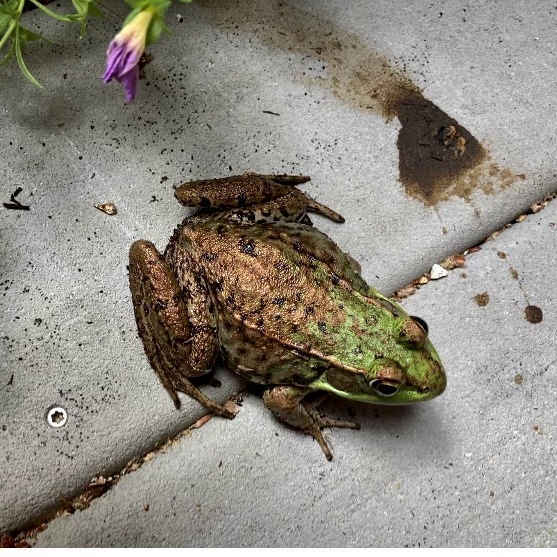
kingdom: Animalia
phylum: Chordata
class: Amphibia
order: Anura
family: Ranidae
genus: Lithobates
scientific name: Lithobates clamitans
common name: Green frog
